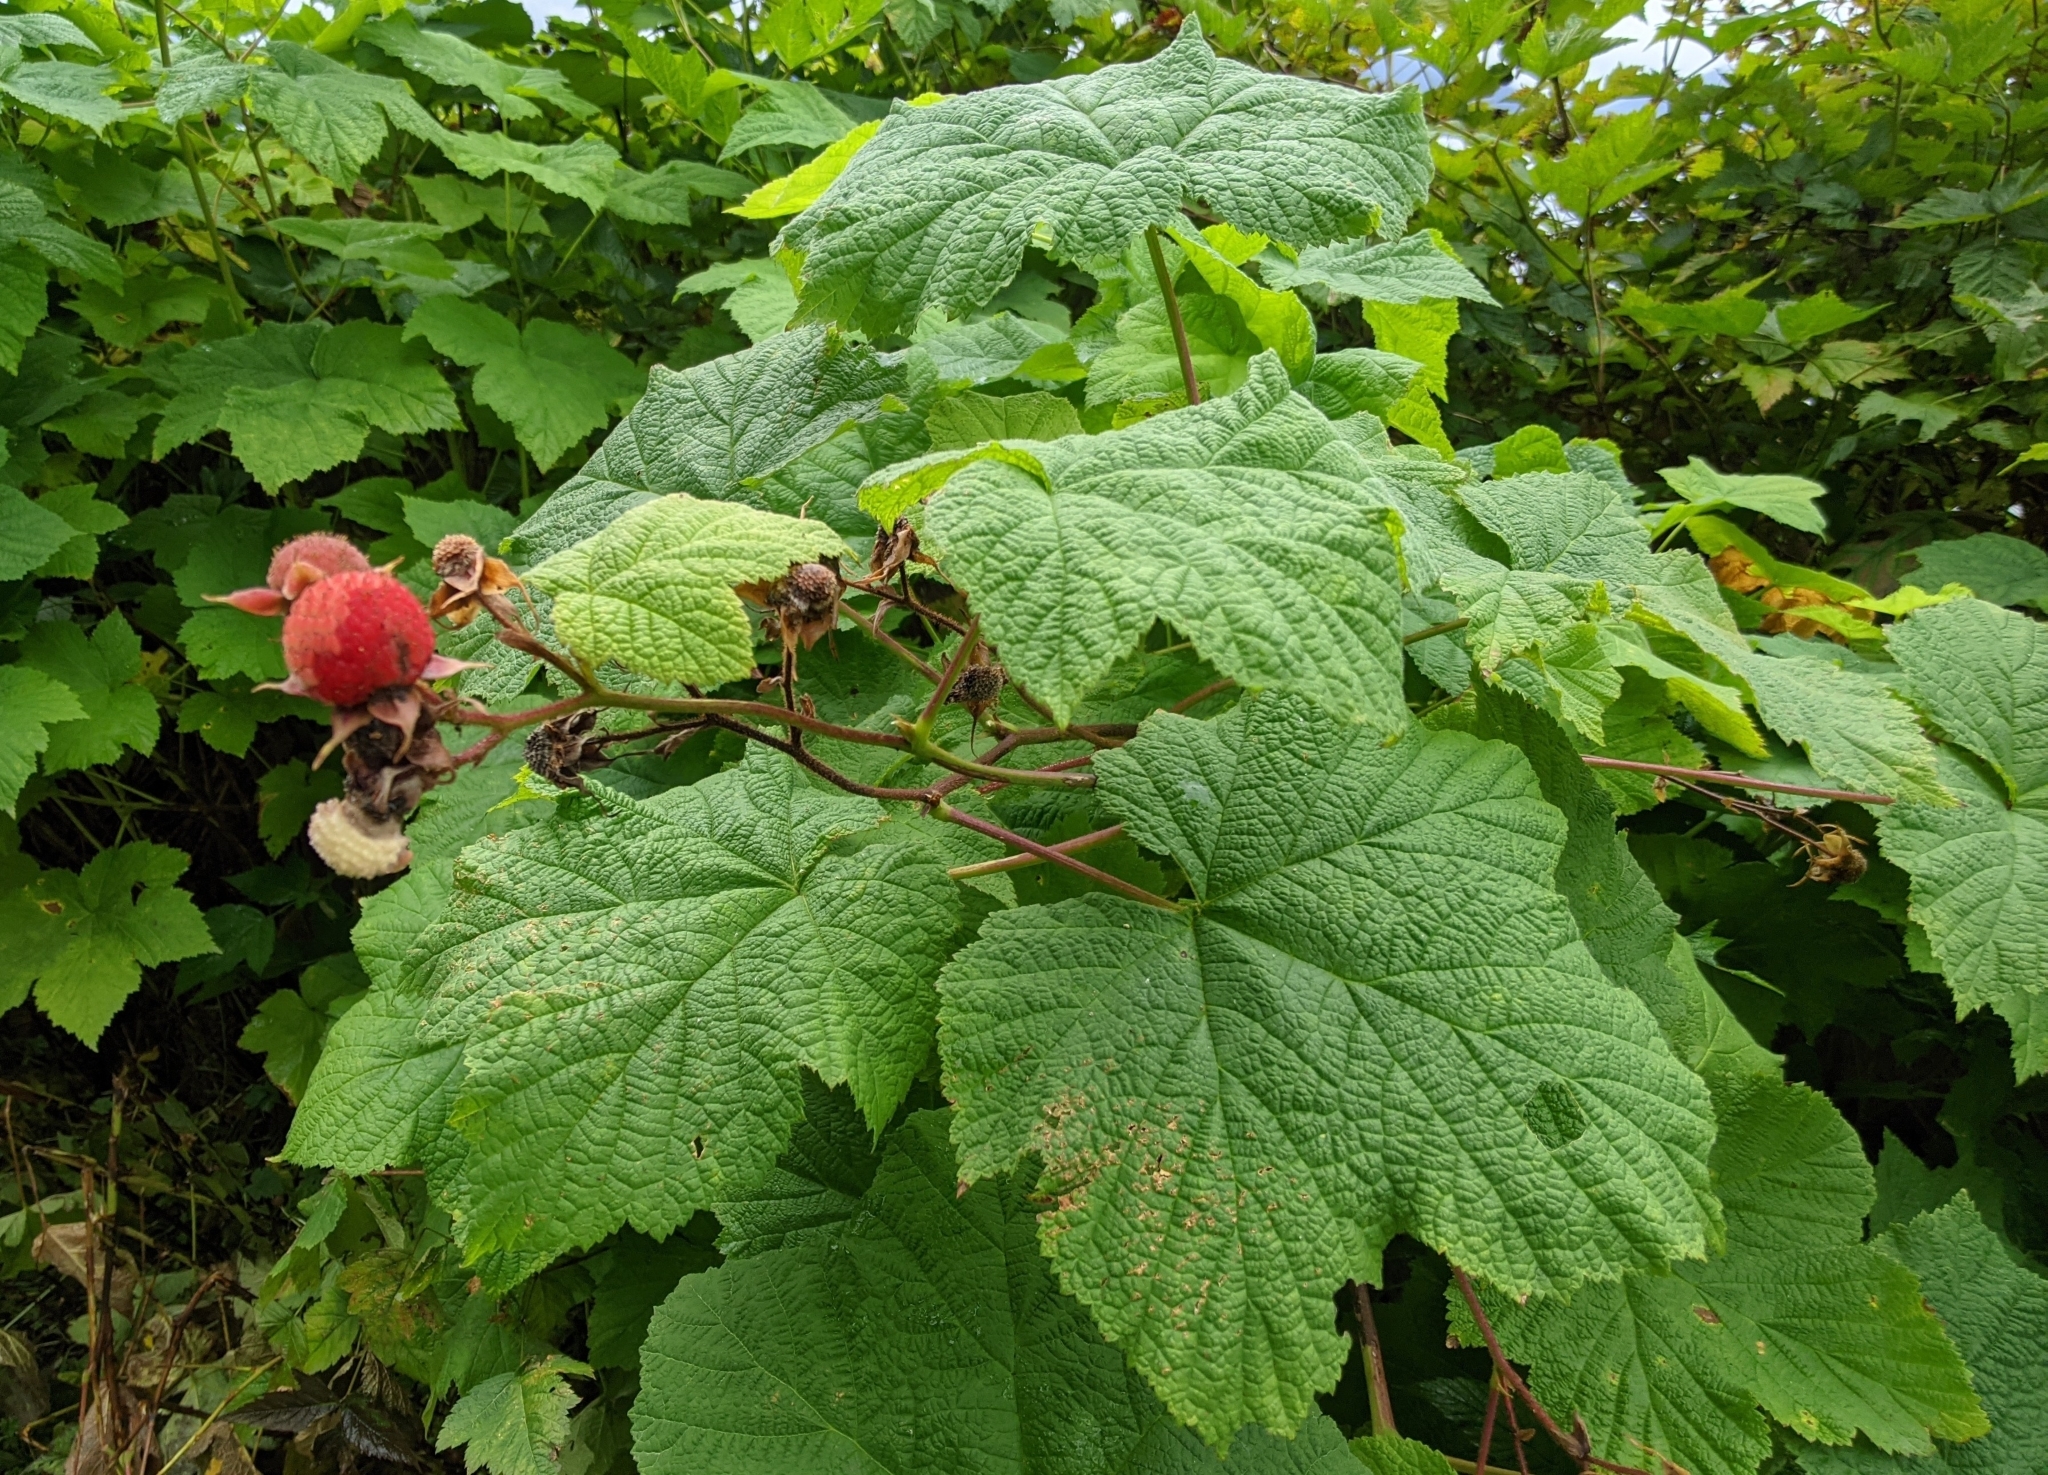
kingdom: Plantae
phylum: Tracheophyta
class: Magnoliopsida
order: Rosales
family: Rosaceae
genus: Rubus
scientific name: Rubus parviflorus
